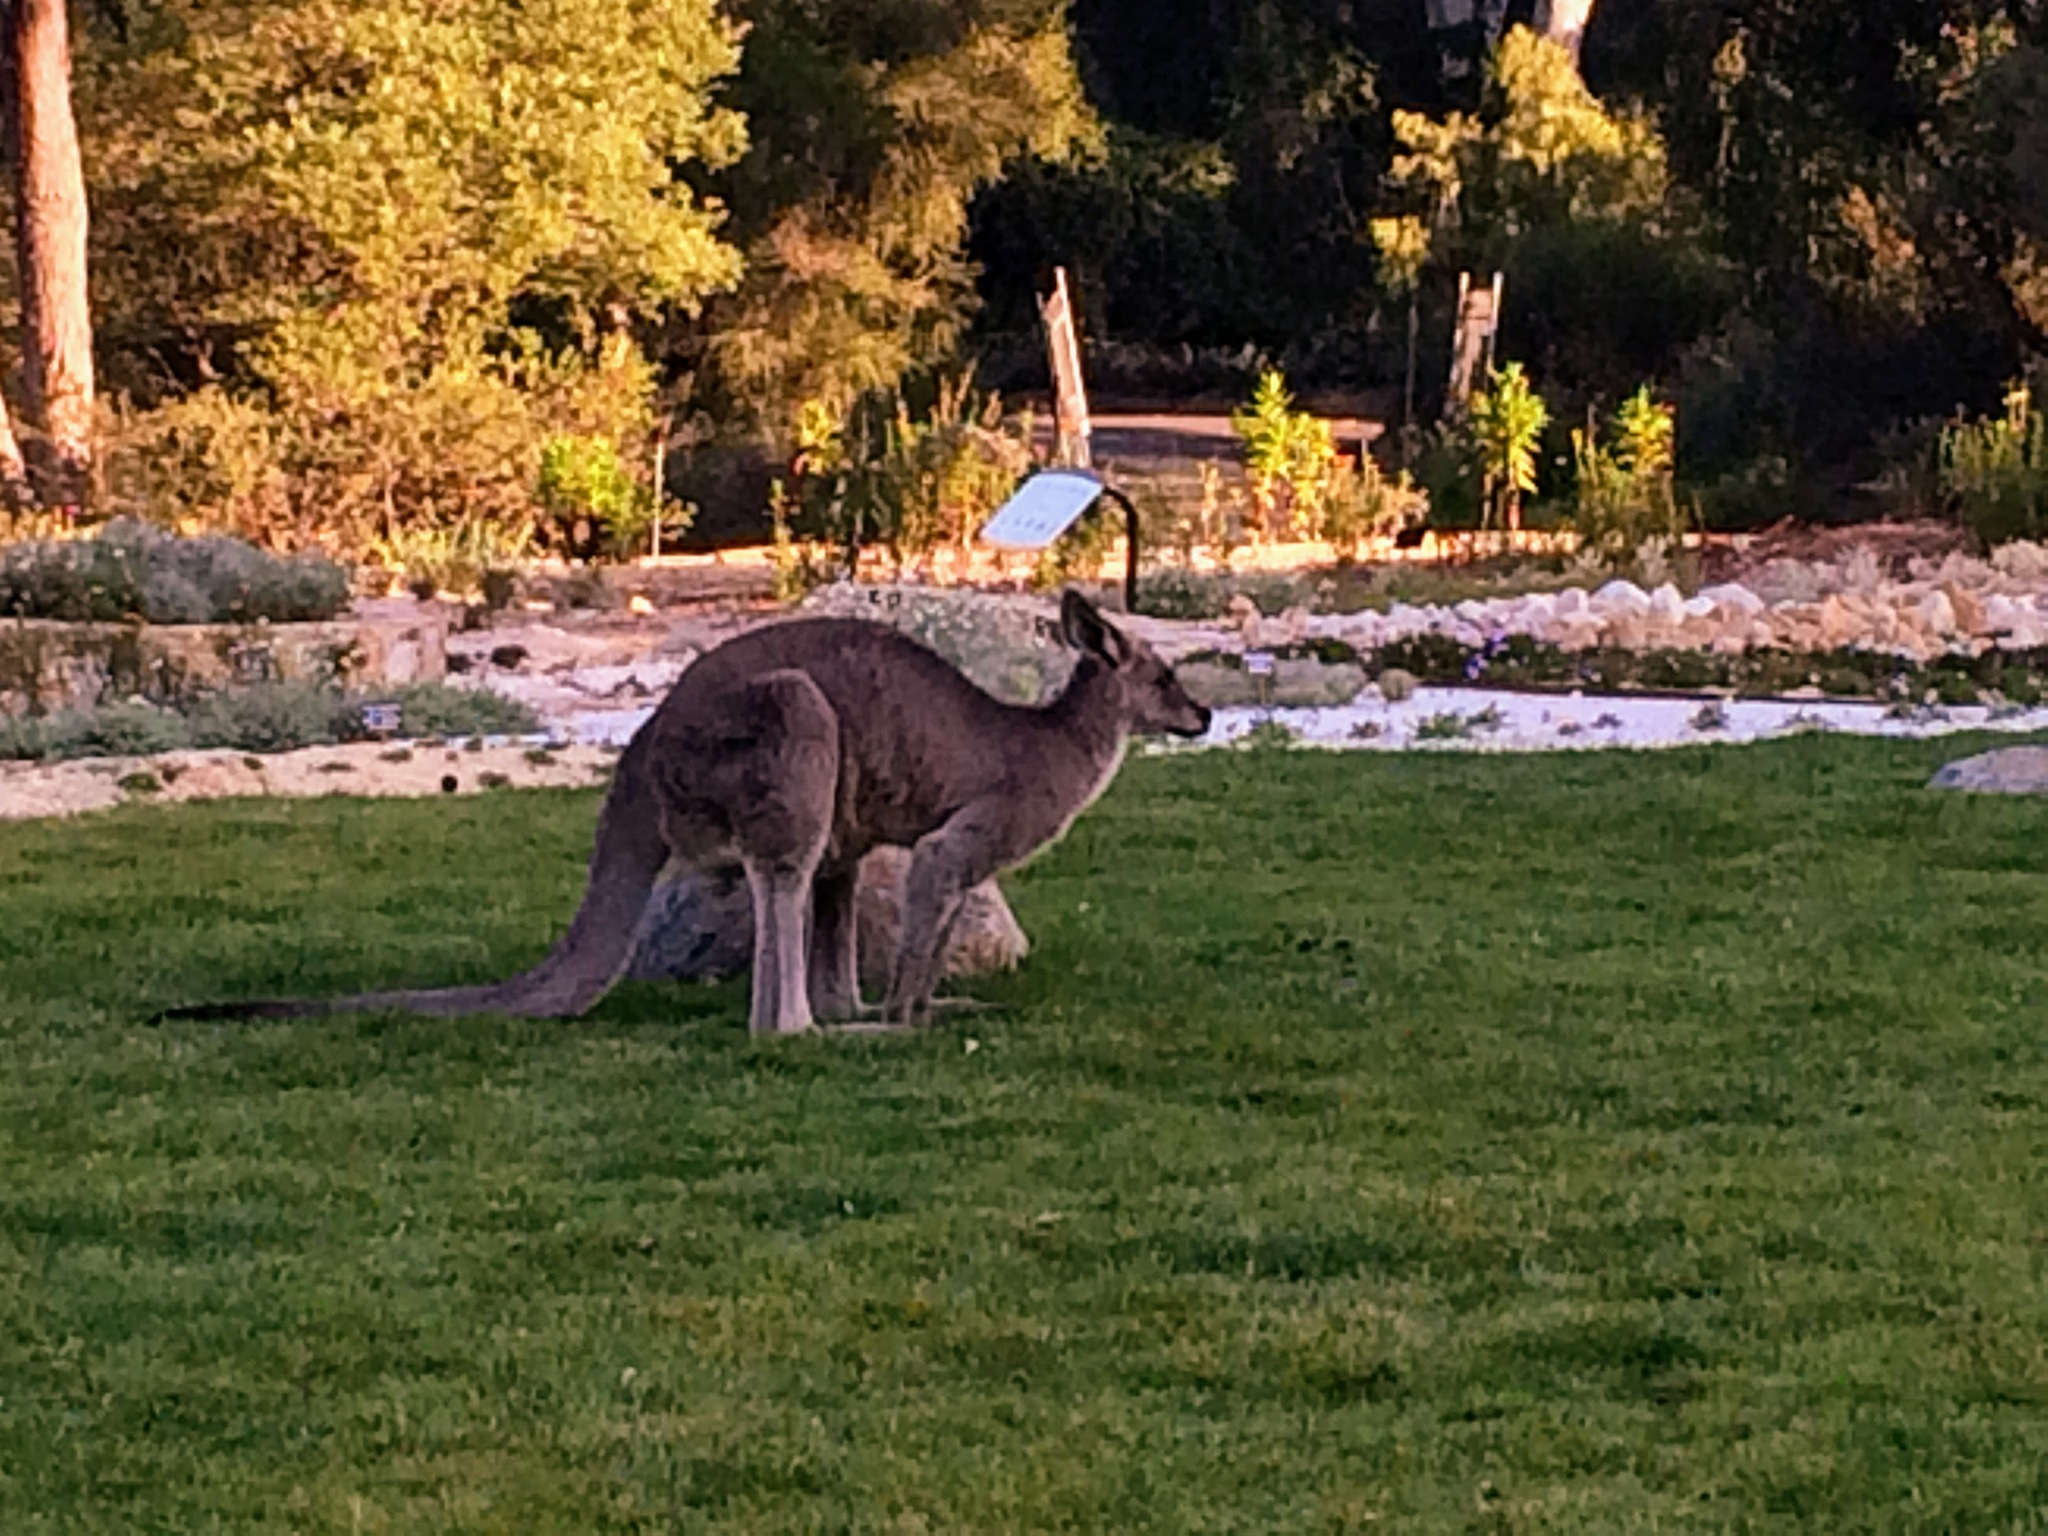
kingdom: Animalia
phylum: Chordata
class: Mammalia
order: Diprotodontia
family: Macropodidae
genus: Macropus
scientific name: Macropus giganteus
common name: Eastern grey kangaroo
